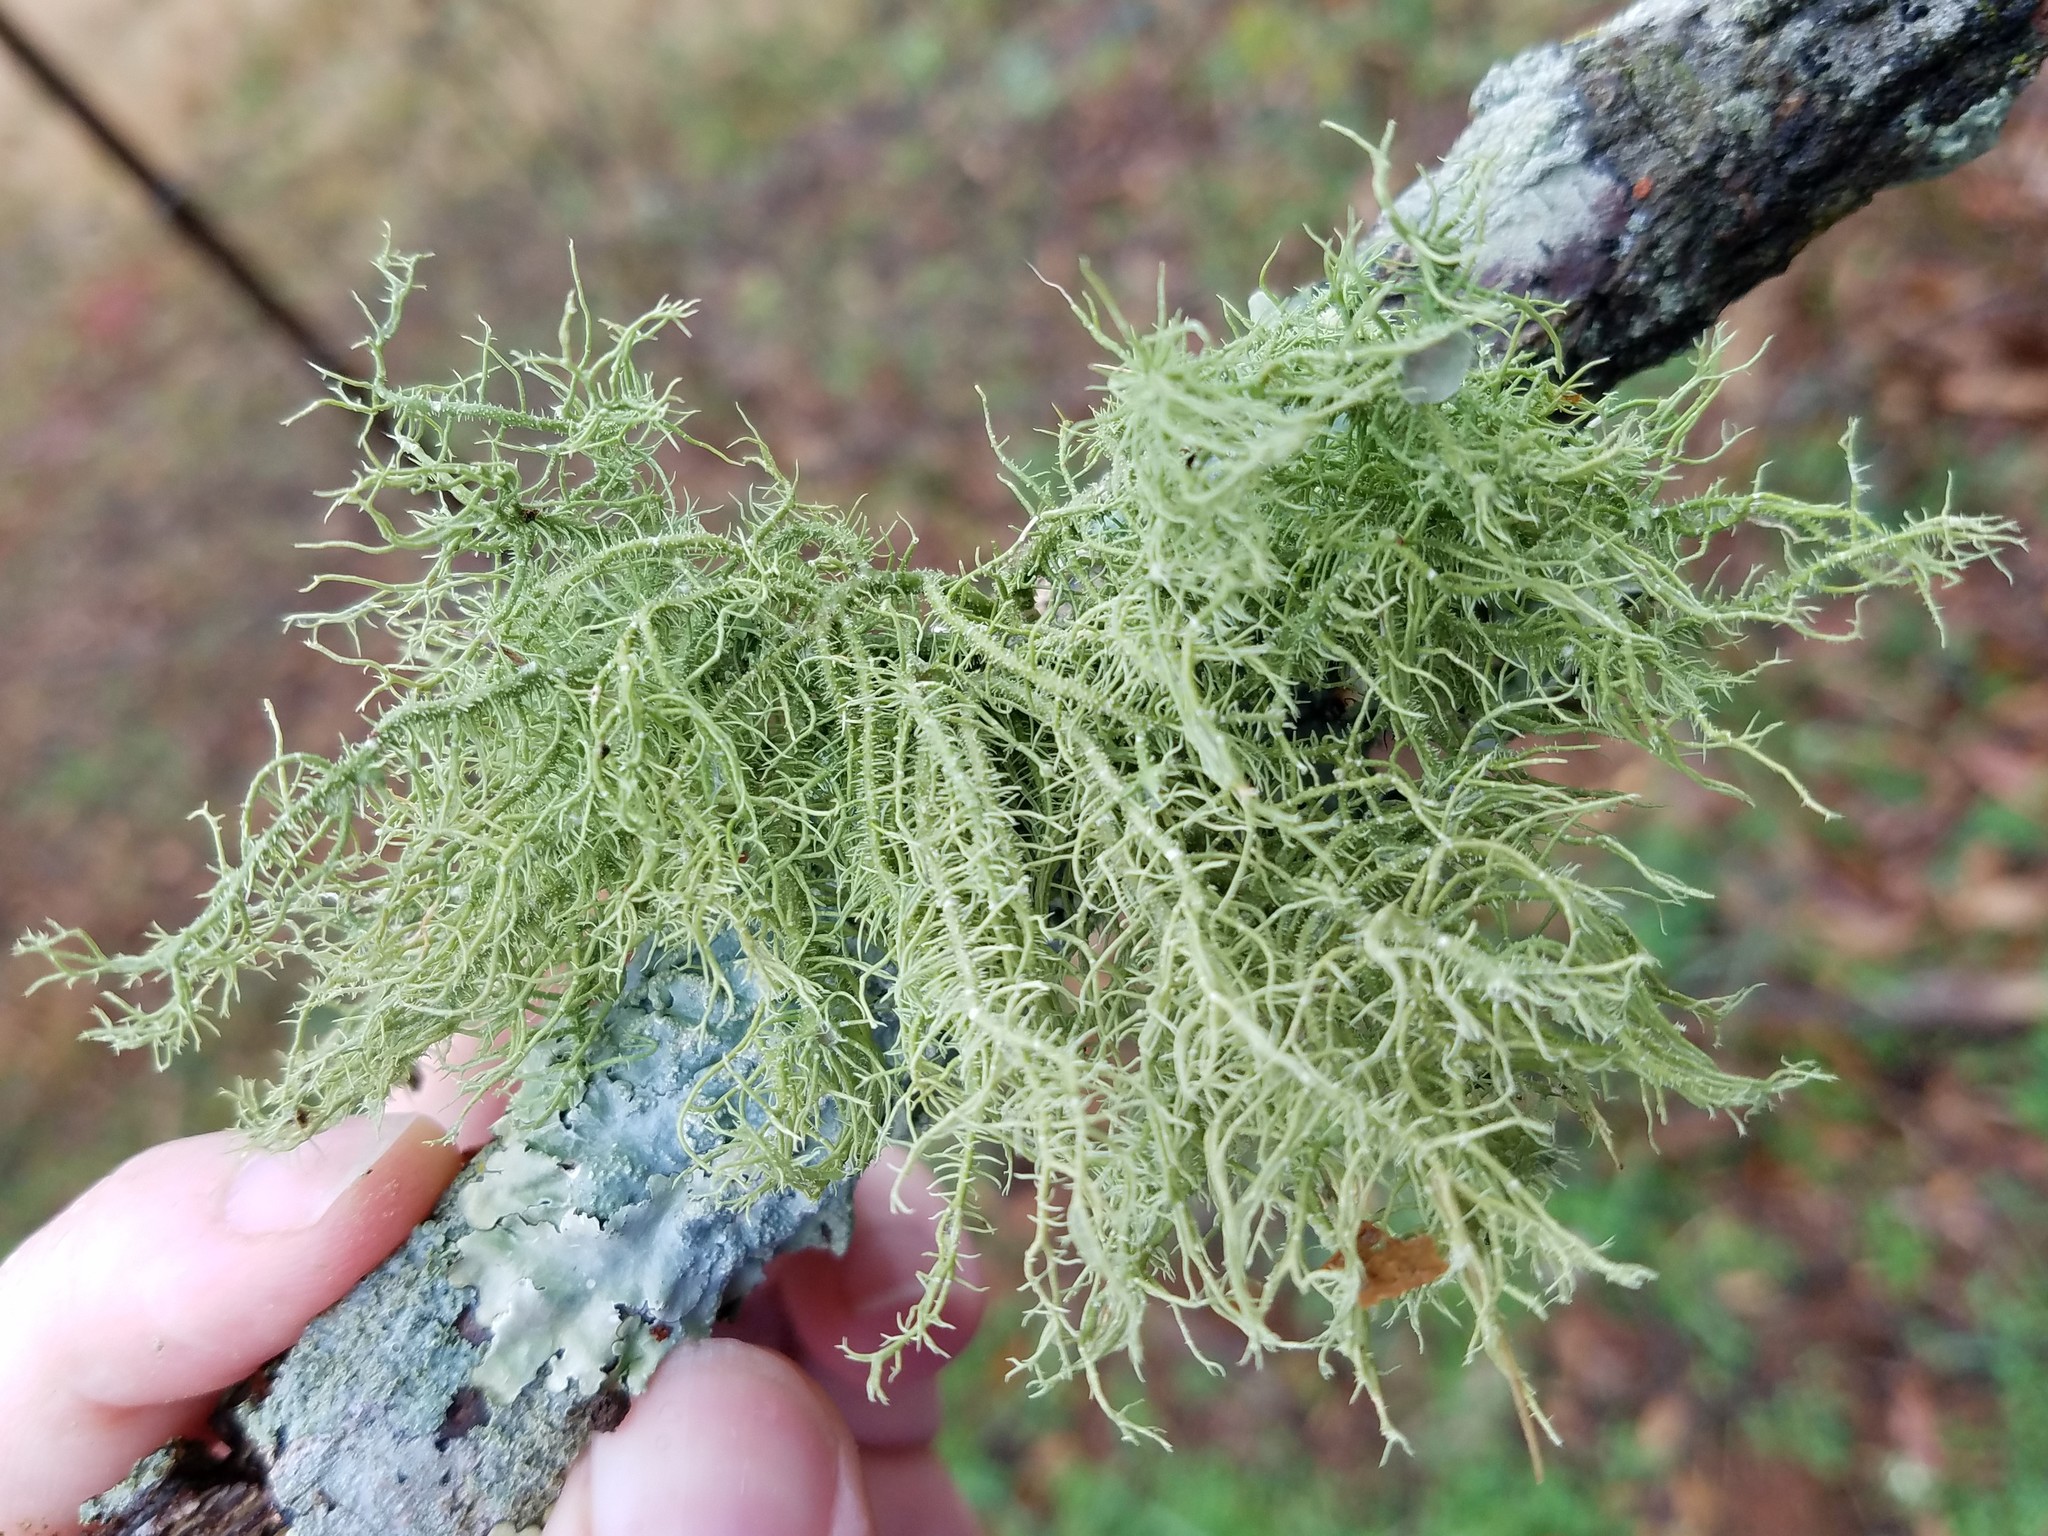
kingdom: Fungi
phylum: Ascomycota
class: Lecanoromycetes
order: Lecanorales
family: Parmeliaceae
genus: Usnea
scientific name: Usnea strigosa
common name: Bushy beard lichen
